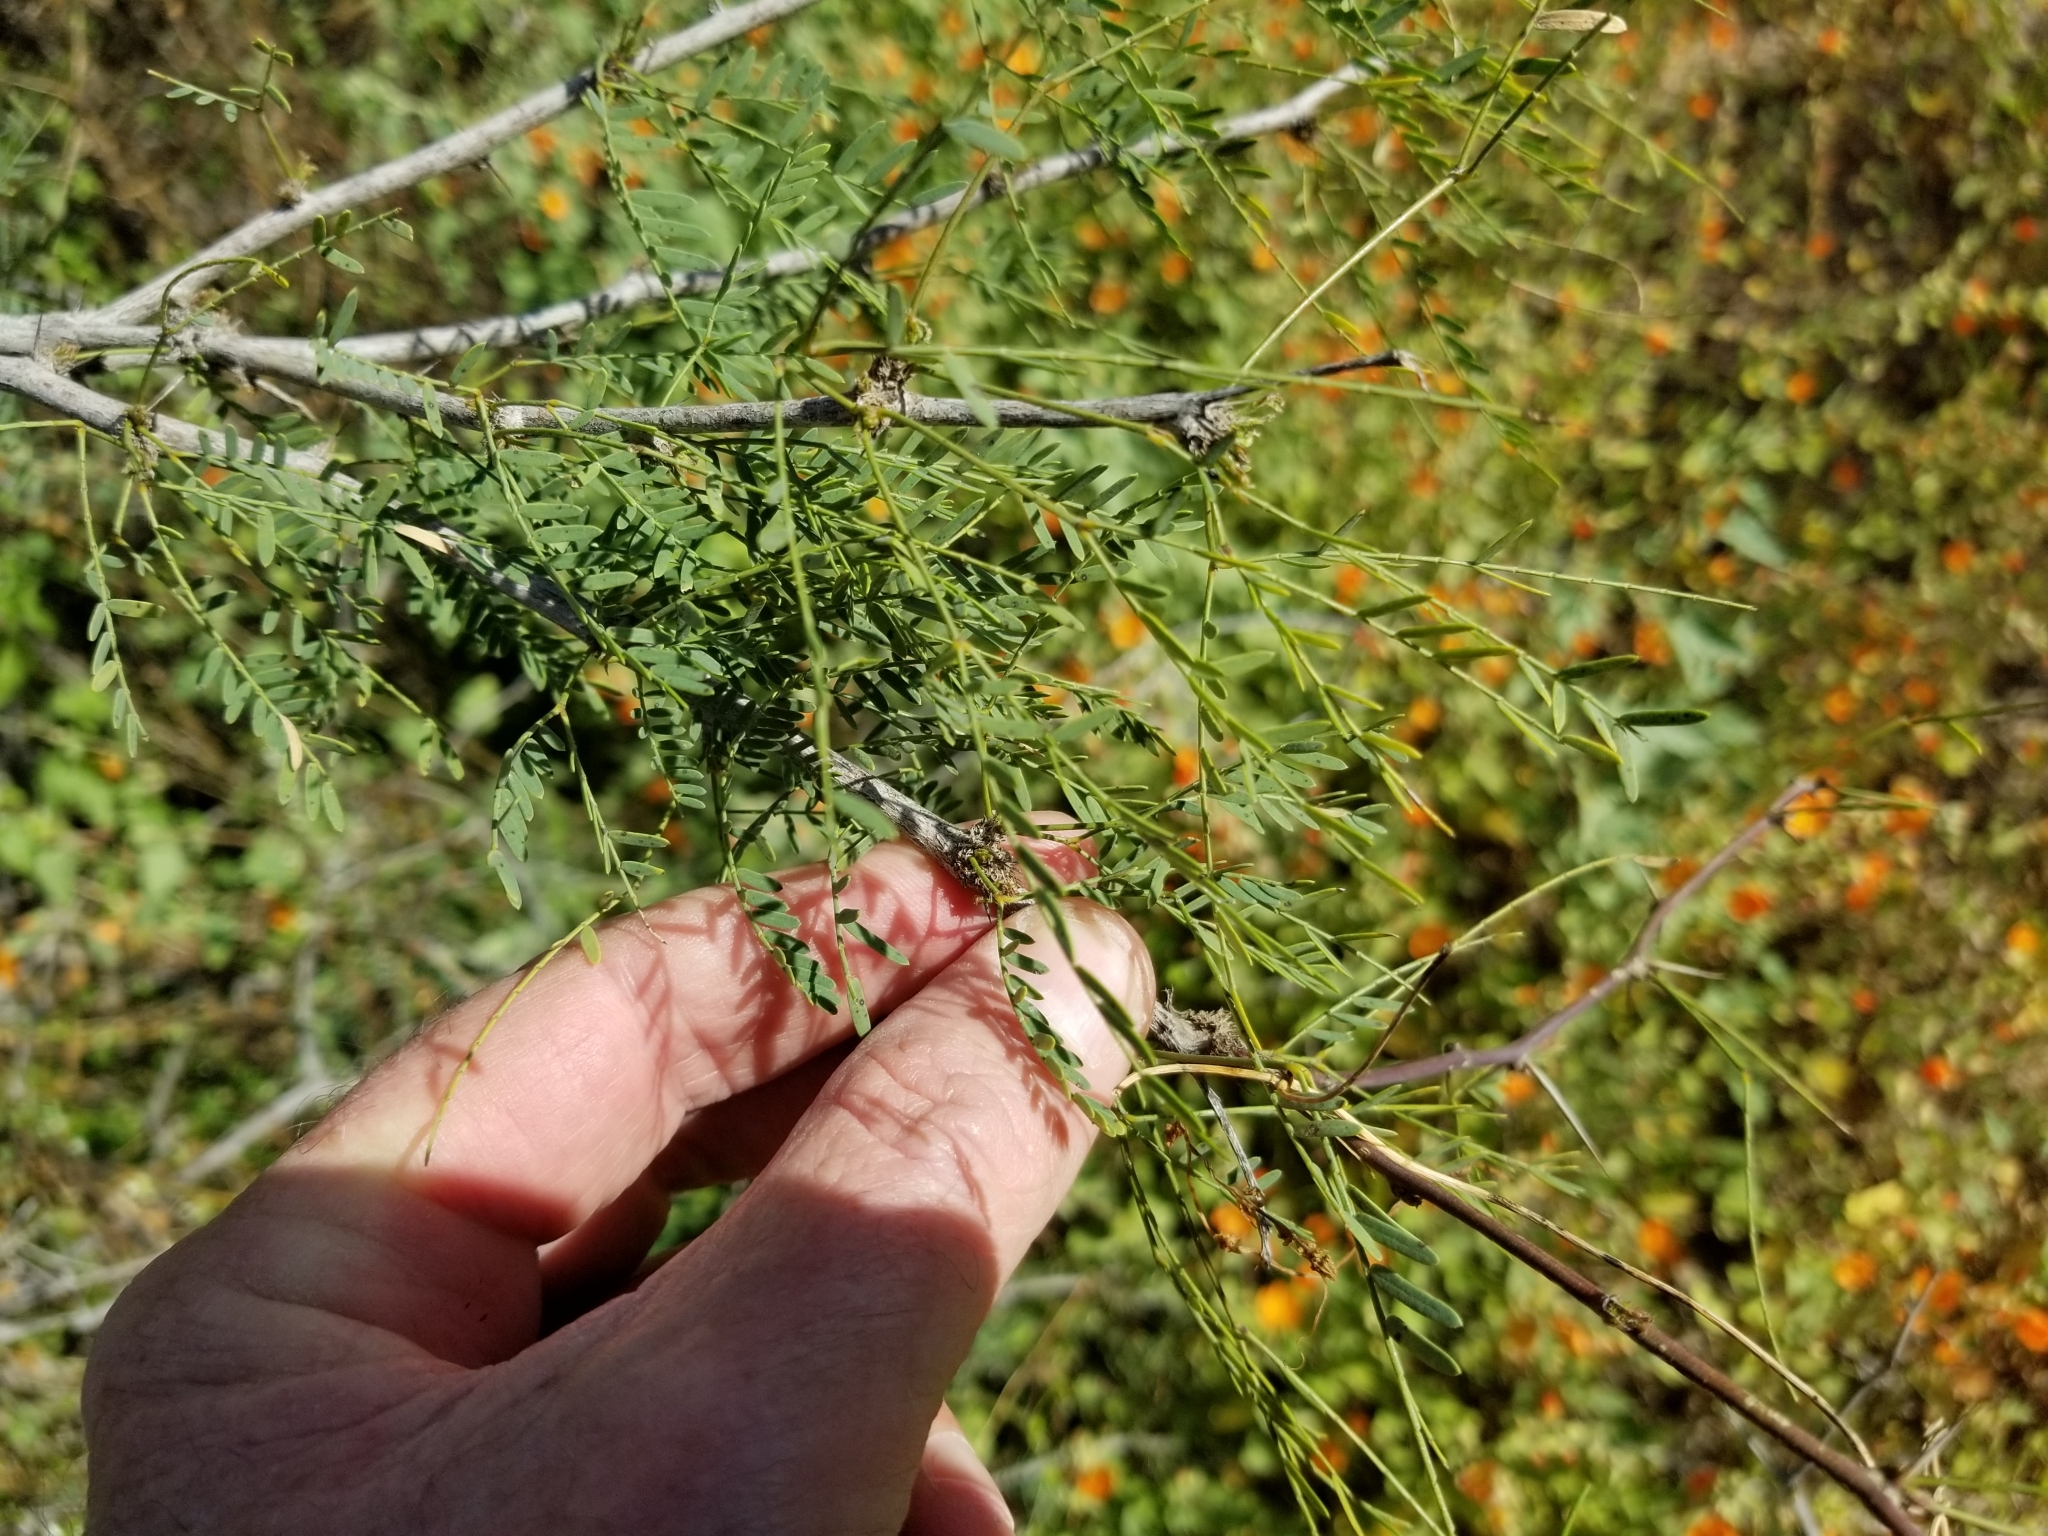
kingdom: Plantae
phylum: Tracheophyta
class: Magnoliopsida
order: Fabales
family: Fabaceae
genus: Prosopis
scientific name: Prosopis glandulosa
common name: Honey mesquite
